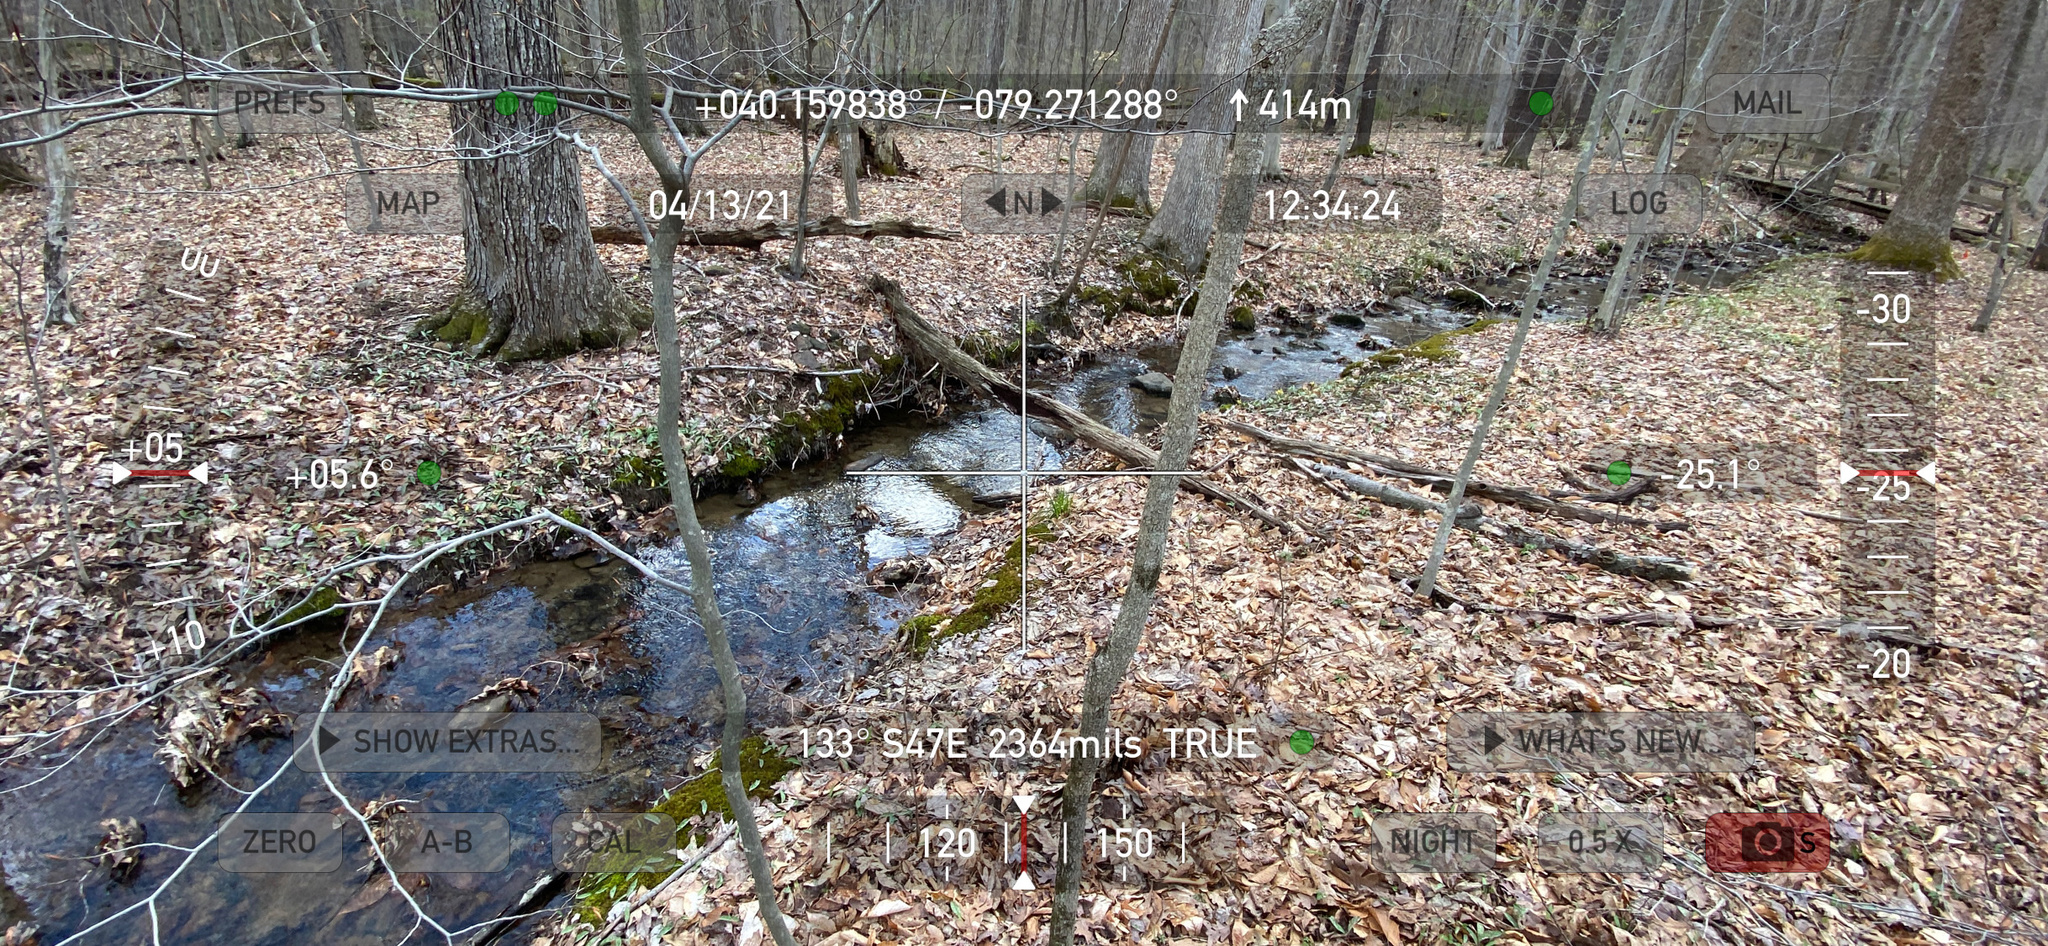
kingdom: Plantae
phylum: Tracheophyta
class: Liliopsida
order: Liliales
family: Liliaceae
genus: Erythronium
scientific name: Erythronium americanum
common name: Yellow adder's-tongue
